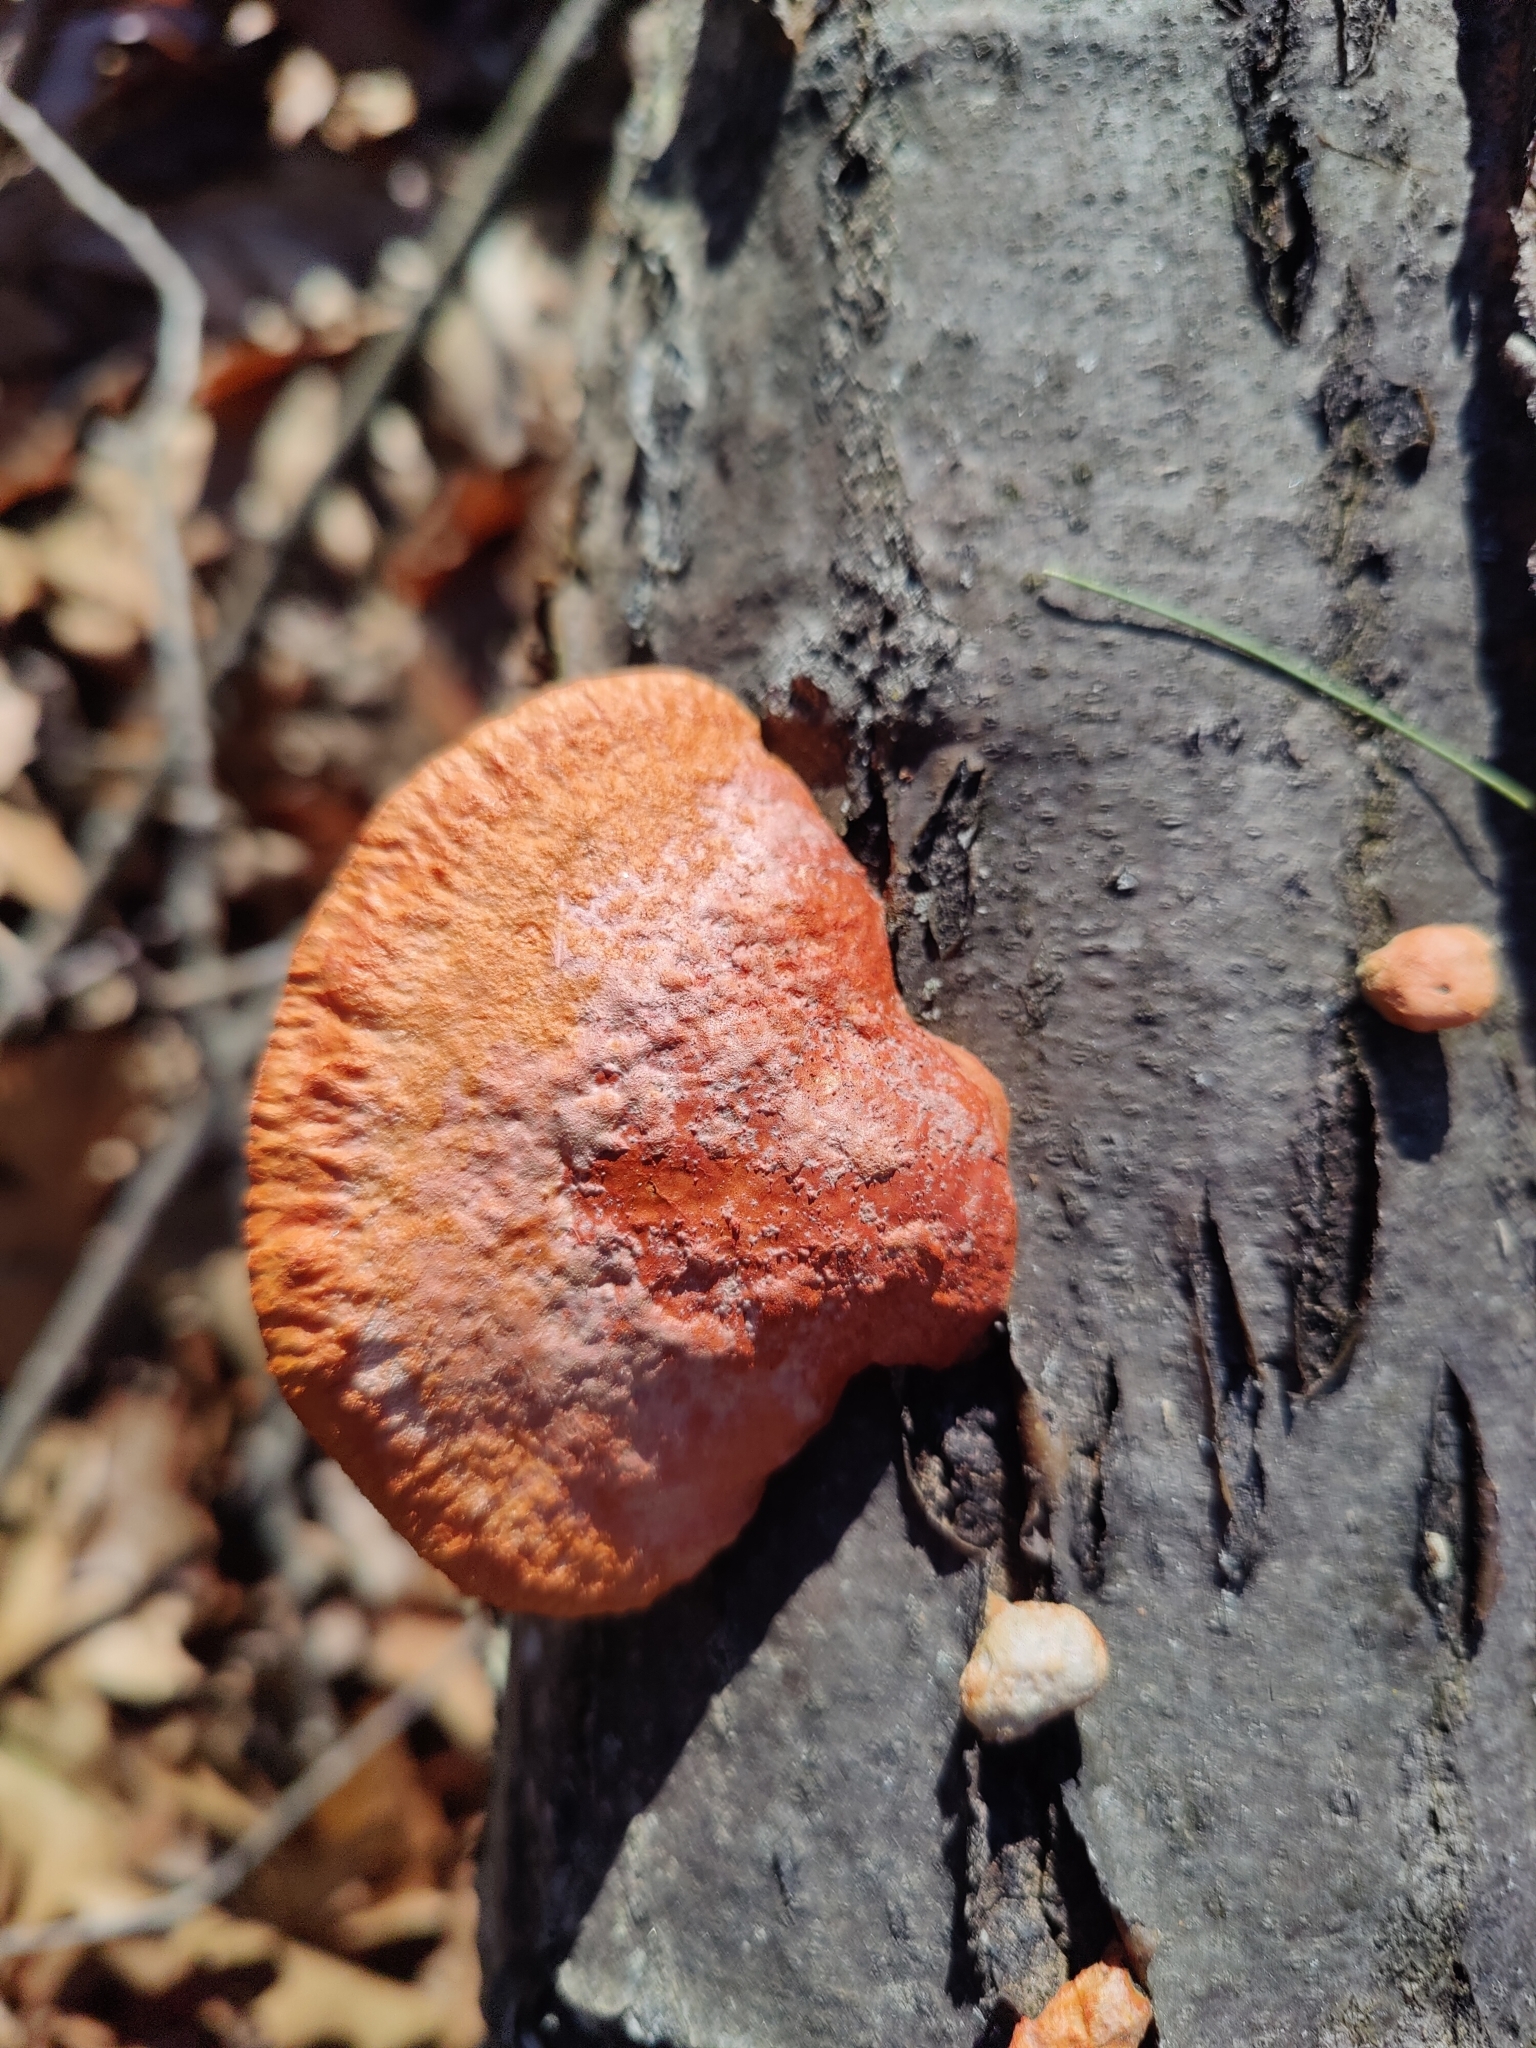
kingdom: Fungi
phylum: Basidiomycota
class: Agaricomycetes
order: Polyporales
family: Polyporaceae
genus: Trametes
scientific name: Trametes cinnabarina
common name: Northern cinnabar polypore
